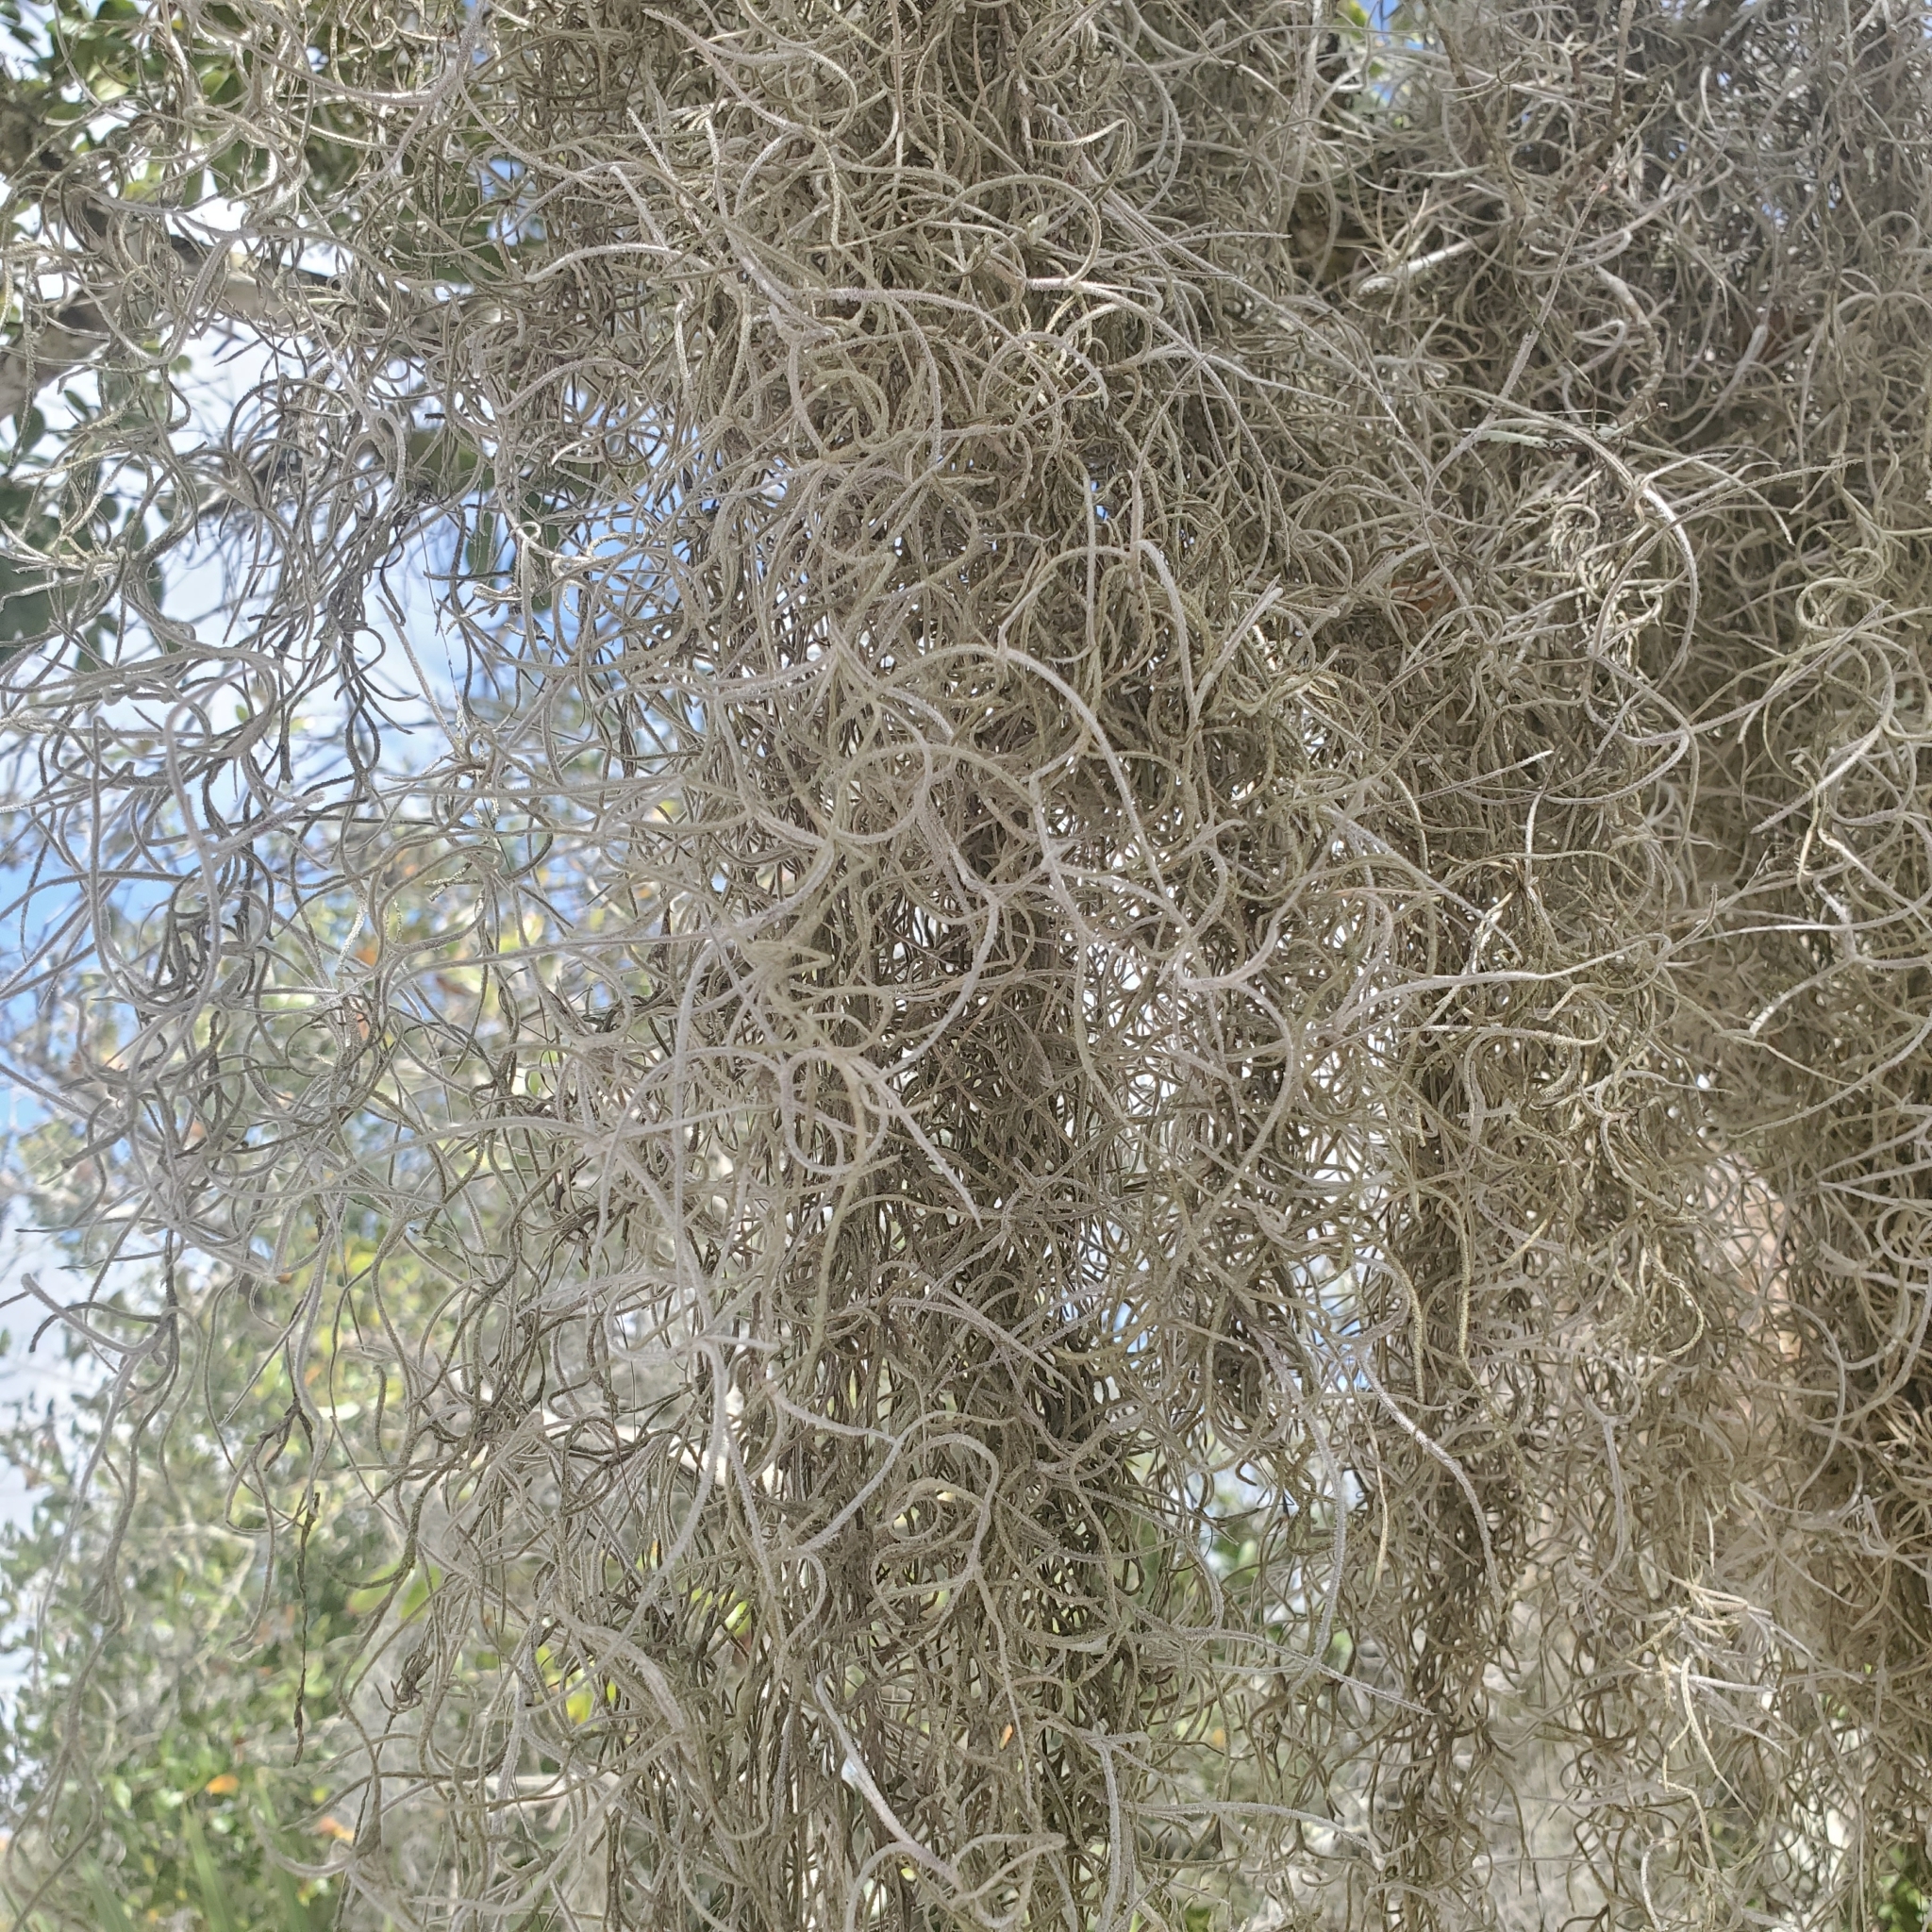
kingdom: Plantae
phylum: Tracheophyta
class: Liliopsida
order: Poales
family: Bromeliaceae
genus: Tillandsia
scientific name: Tillandsia usneoides
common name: Spanish moss
